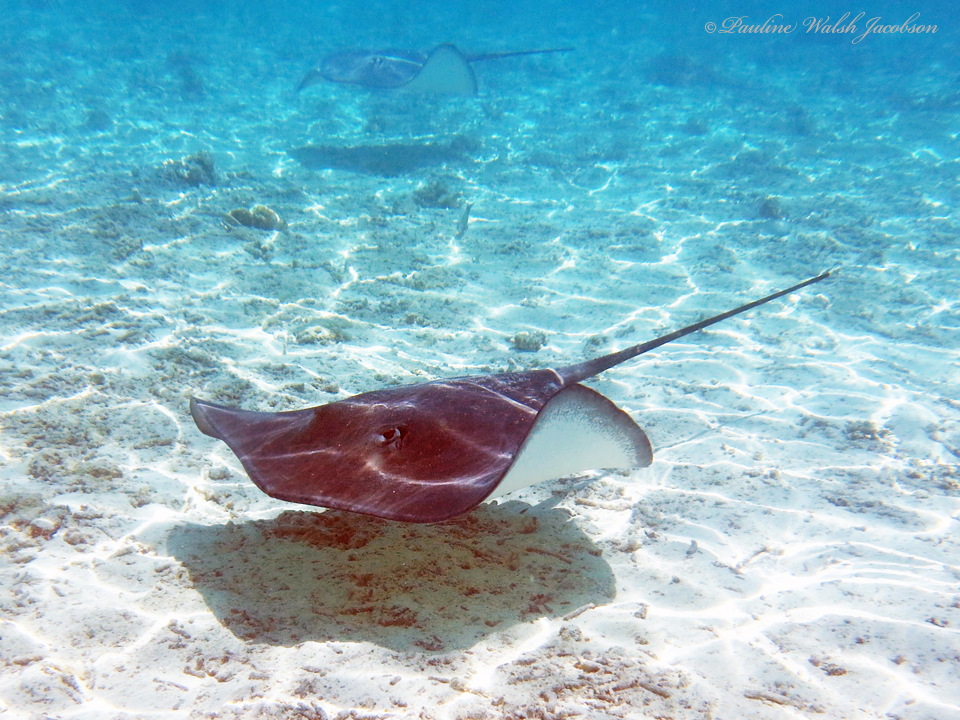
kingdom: Animalia
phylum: Chordata
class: Elasmobranchii
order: Myliobatiformes
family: Dasyatidae
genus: Pateobatis
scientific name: Pateobatis fai
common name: Pink whipray
